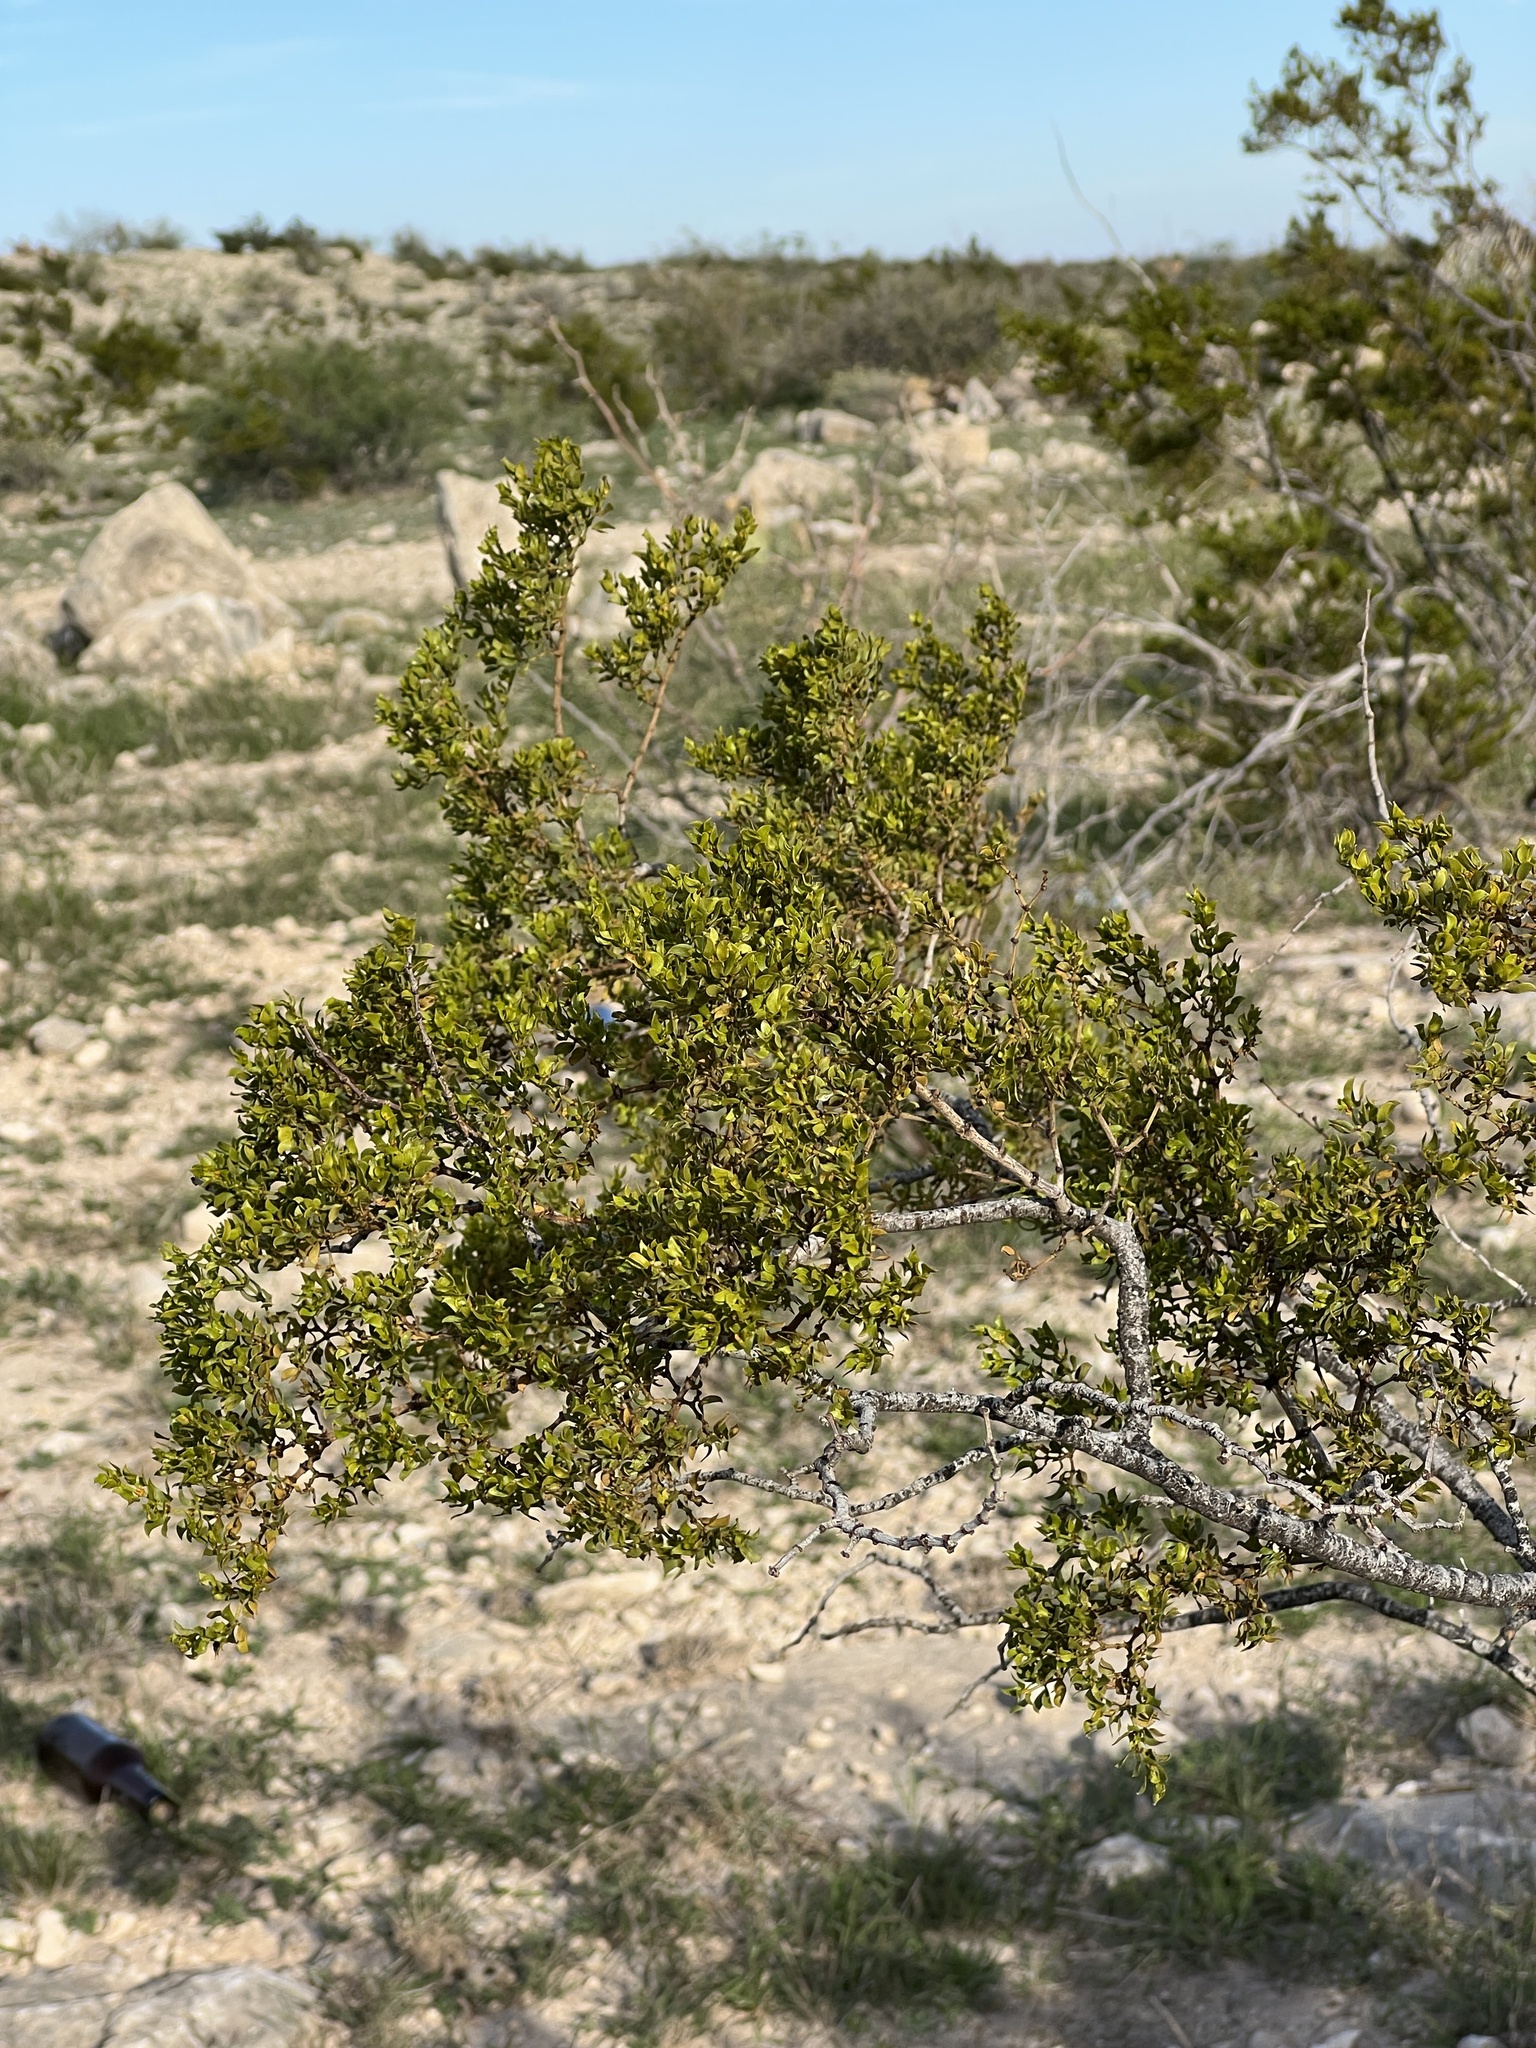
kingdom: Plantae
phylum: Tracheophyta
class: Magnoliopsida
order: Zygophyllales
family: Zygophyllaceae
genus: Larrea
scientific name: Larrea tridentata
